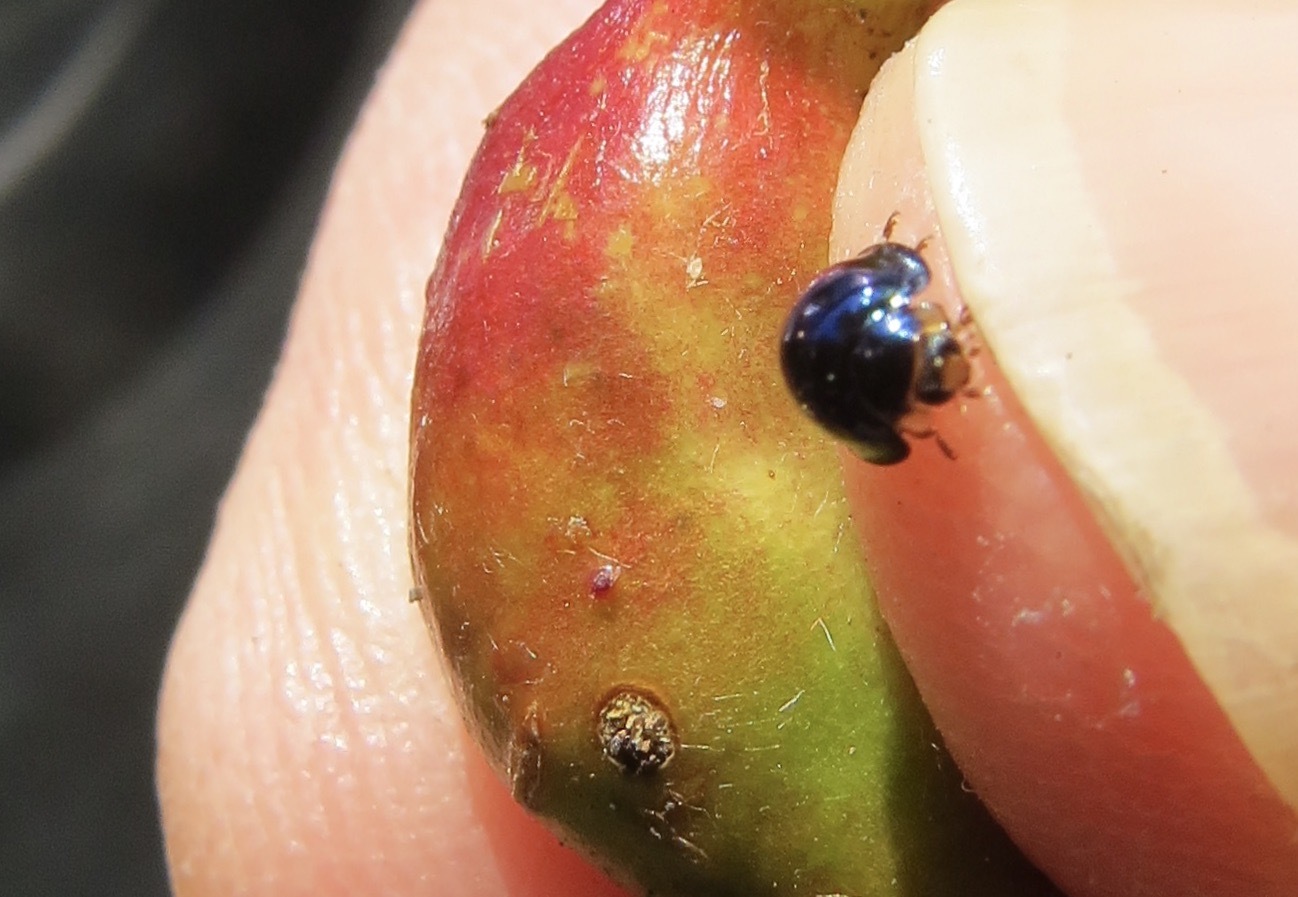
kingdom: Animalia
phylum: Arthropoda
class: Insecta
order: Coleoptera
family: Coccinellidae
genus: Halmus
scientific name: Halmus chalybeus
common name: Steel blue ladybird beetle
